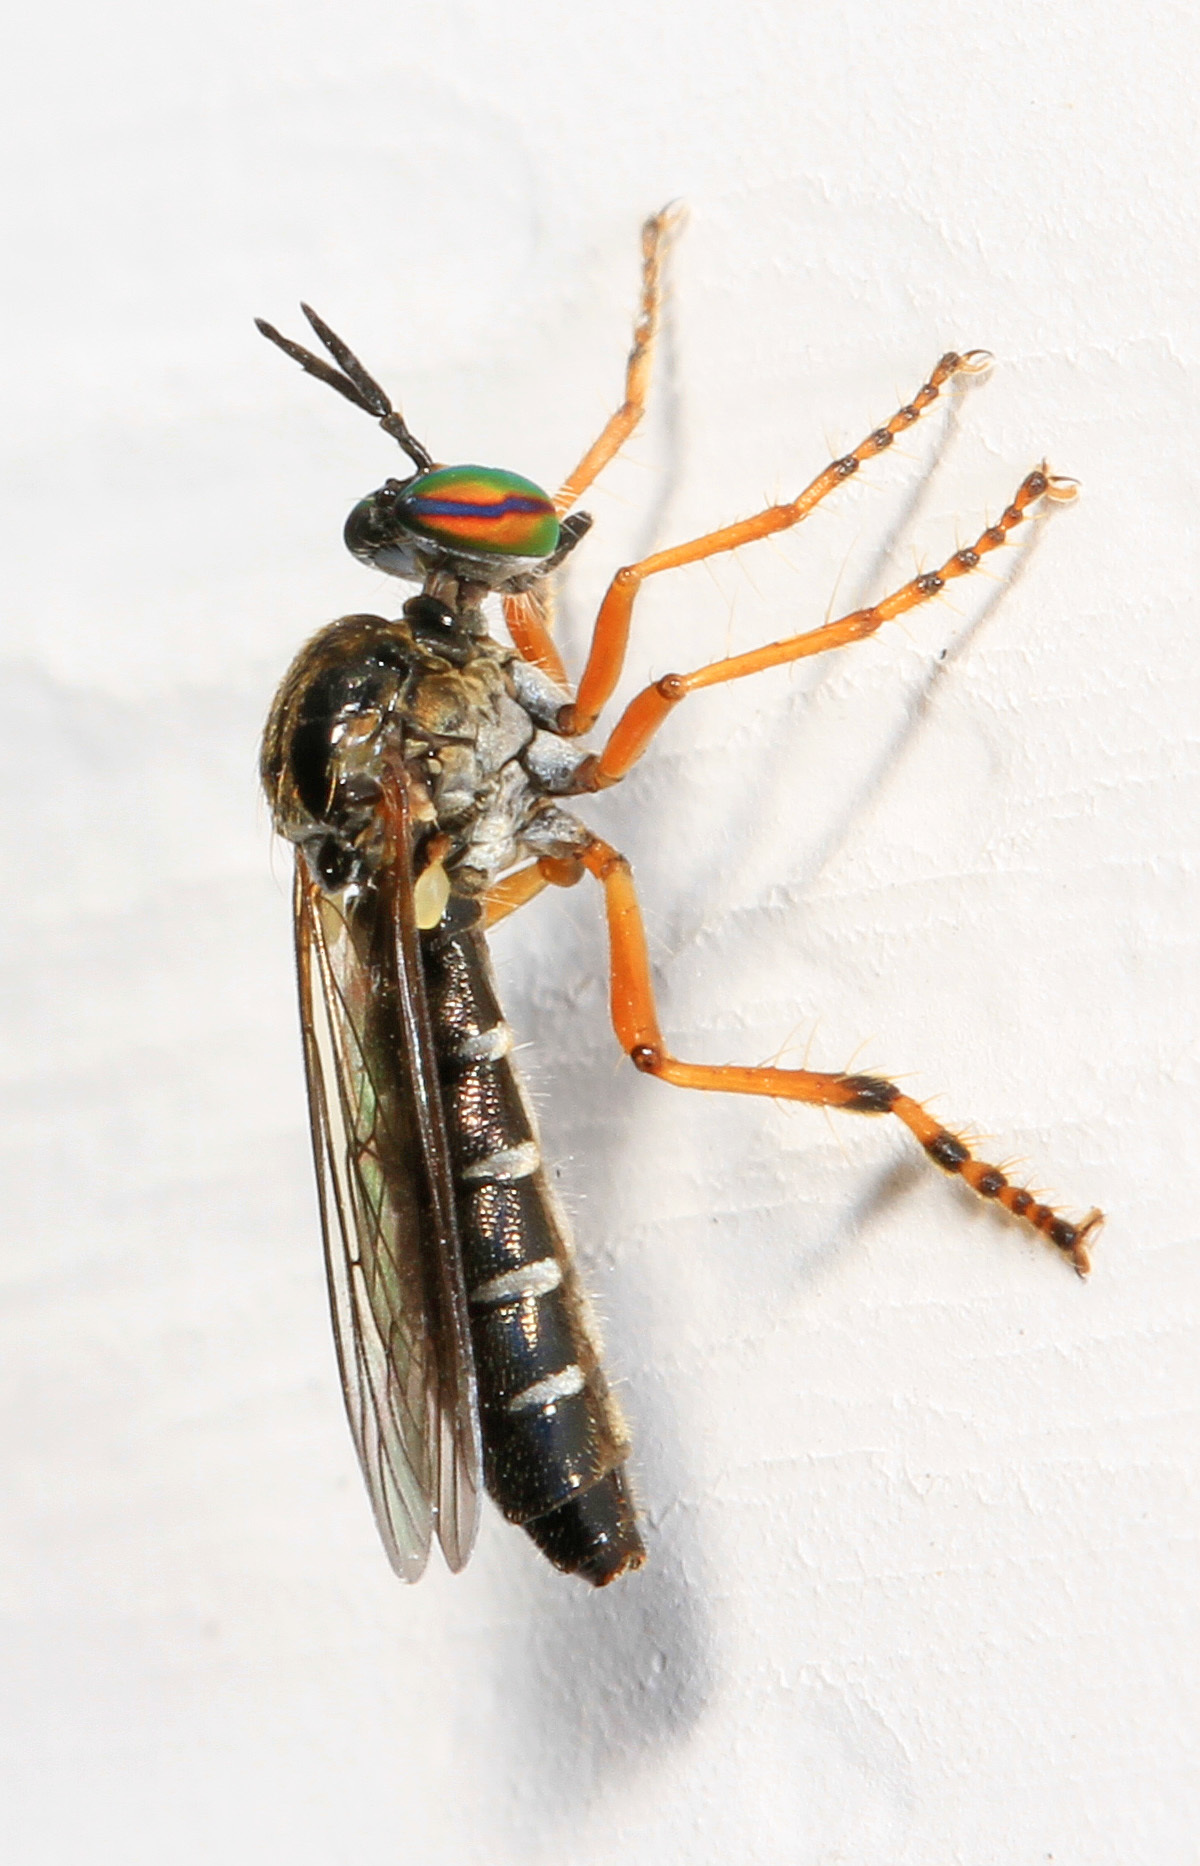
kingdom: Animalia
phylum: Arthropoda
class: Insecta
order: Diptera
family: Asilidae
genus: Taracticus
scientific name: Taracticus octopunctatus
